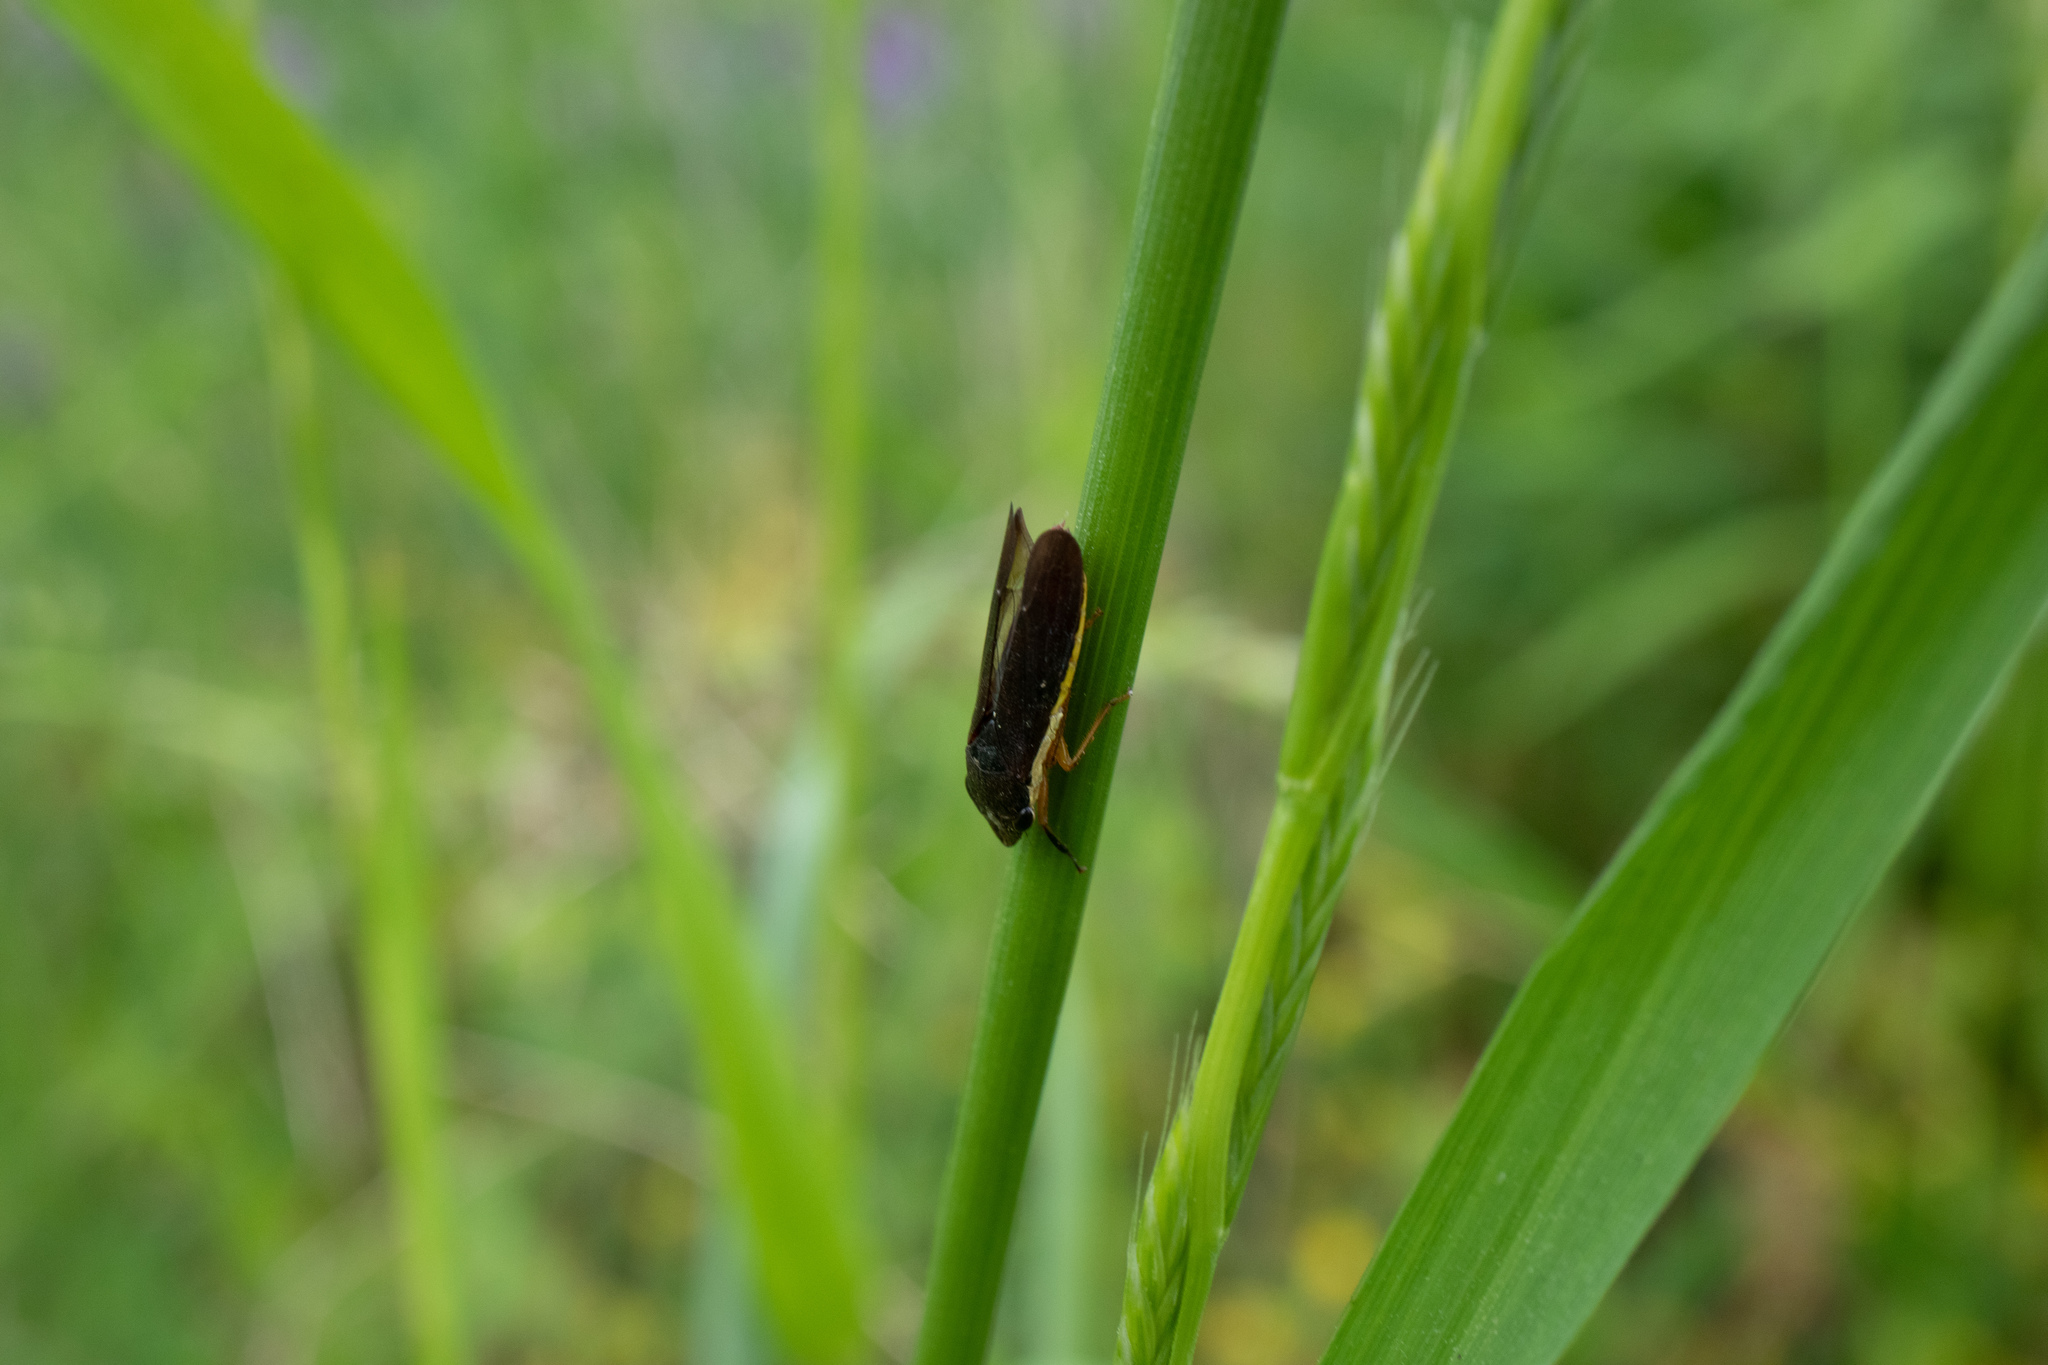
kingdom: Animalia
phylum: Arthropoda
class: Insecta
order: Hemiptera
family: Cicadellidae
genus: Homalodisca
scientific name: Homalodisca insolita
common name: Johnson grass sharpshooter
